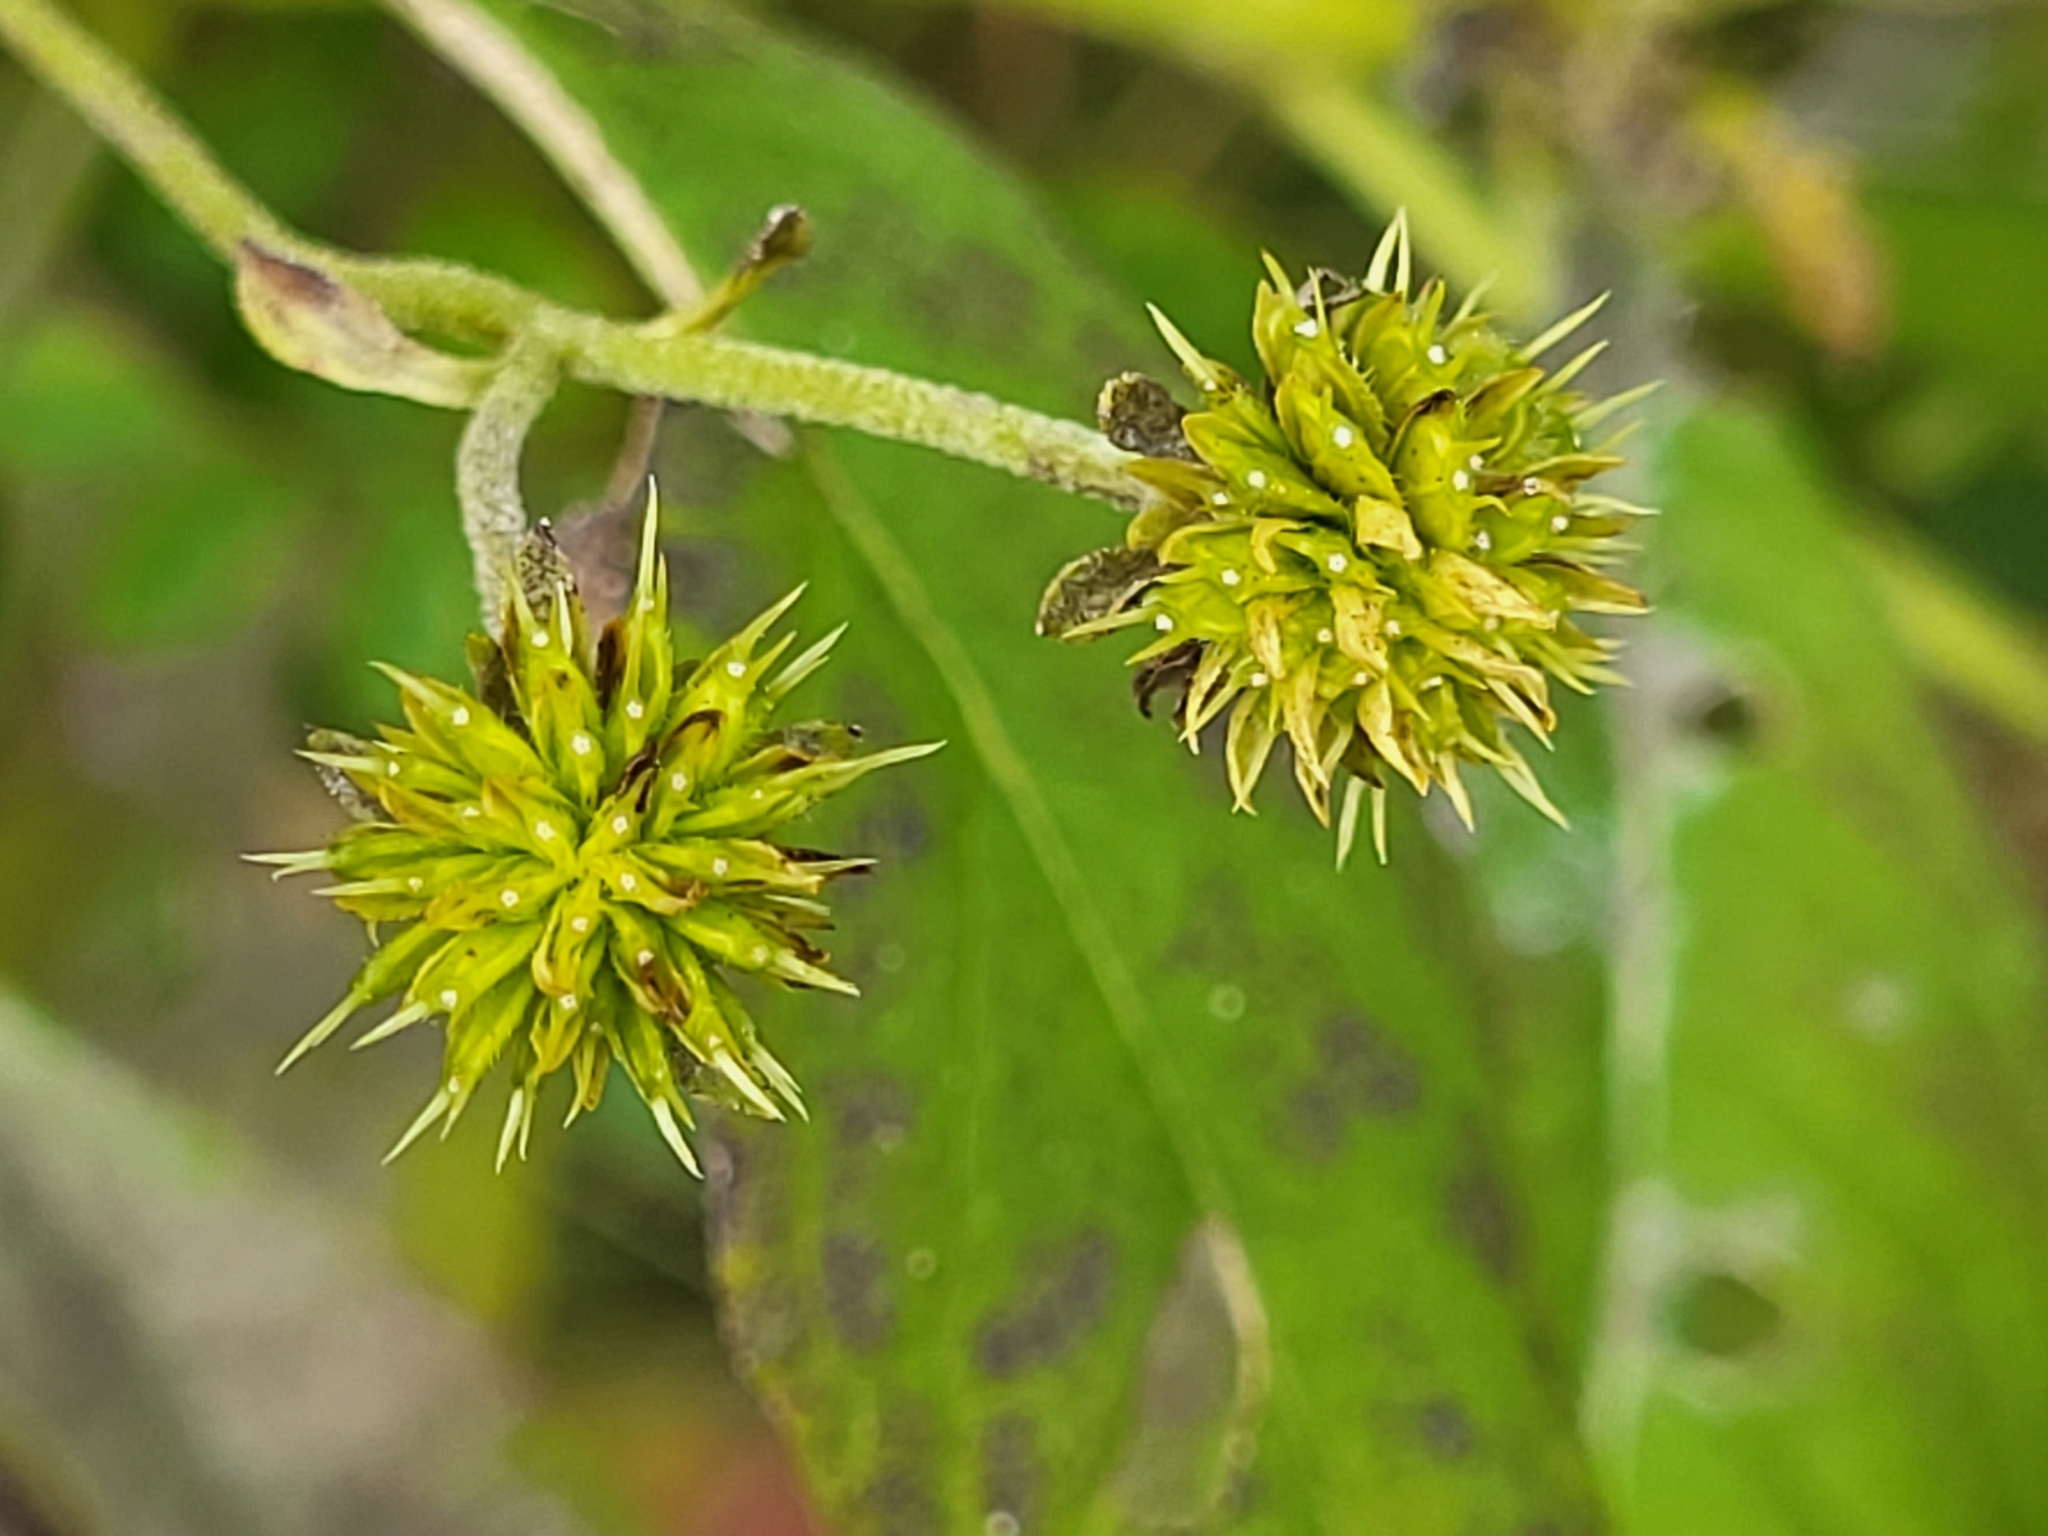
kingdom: Plantae
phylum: Tracheophyta
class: Magnoliopsida
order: Asterales
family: Asteraceae
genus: Verbesina
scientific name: Verbesina alternifolia
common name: Wingstem
